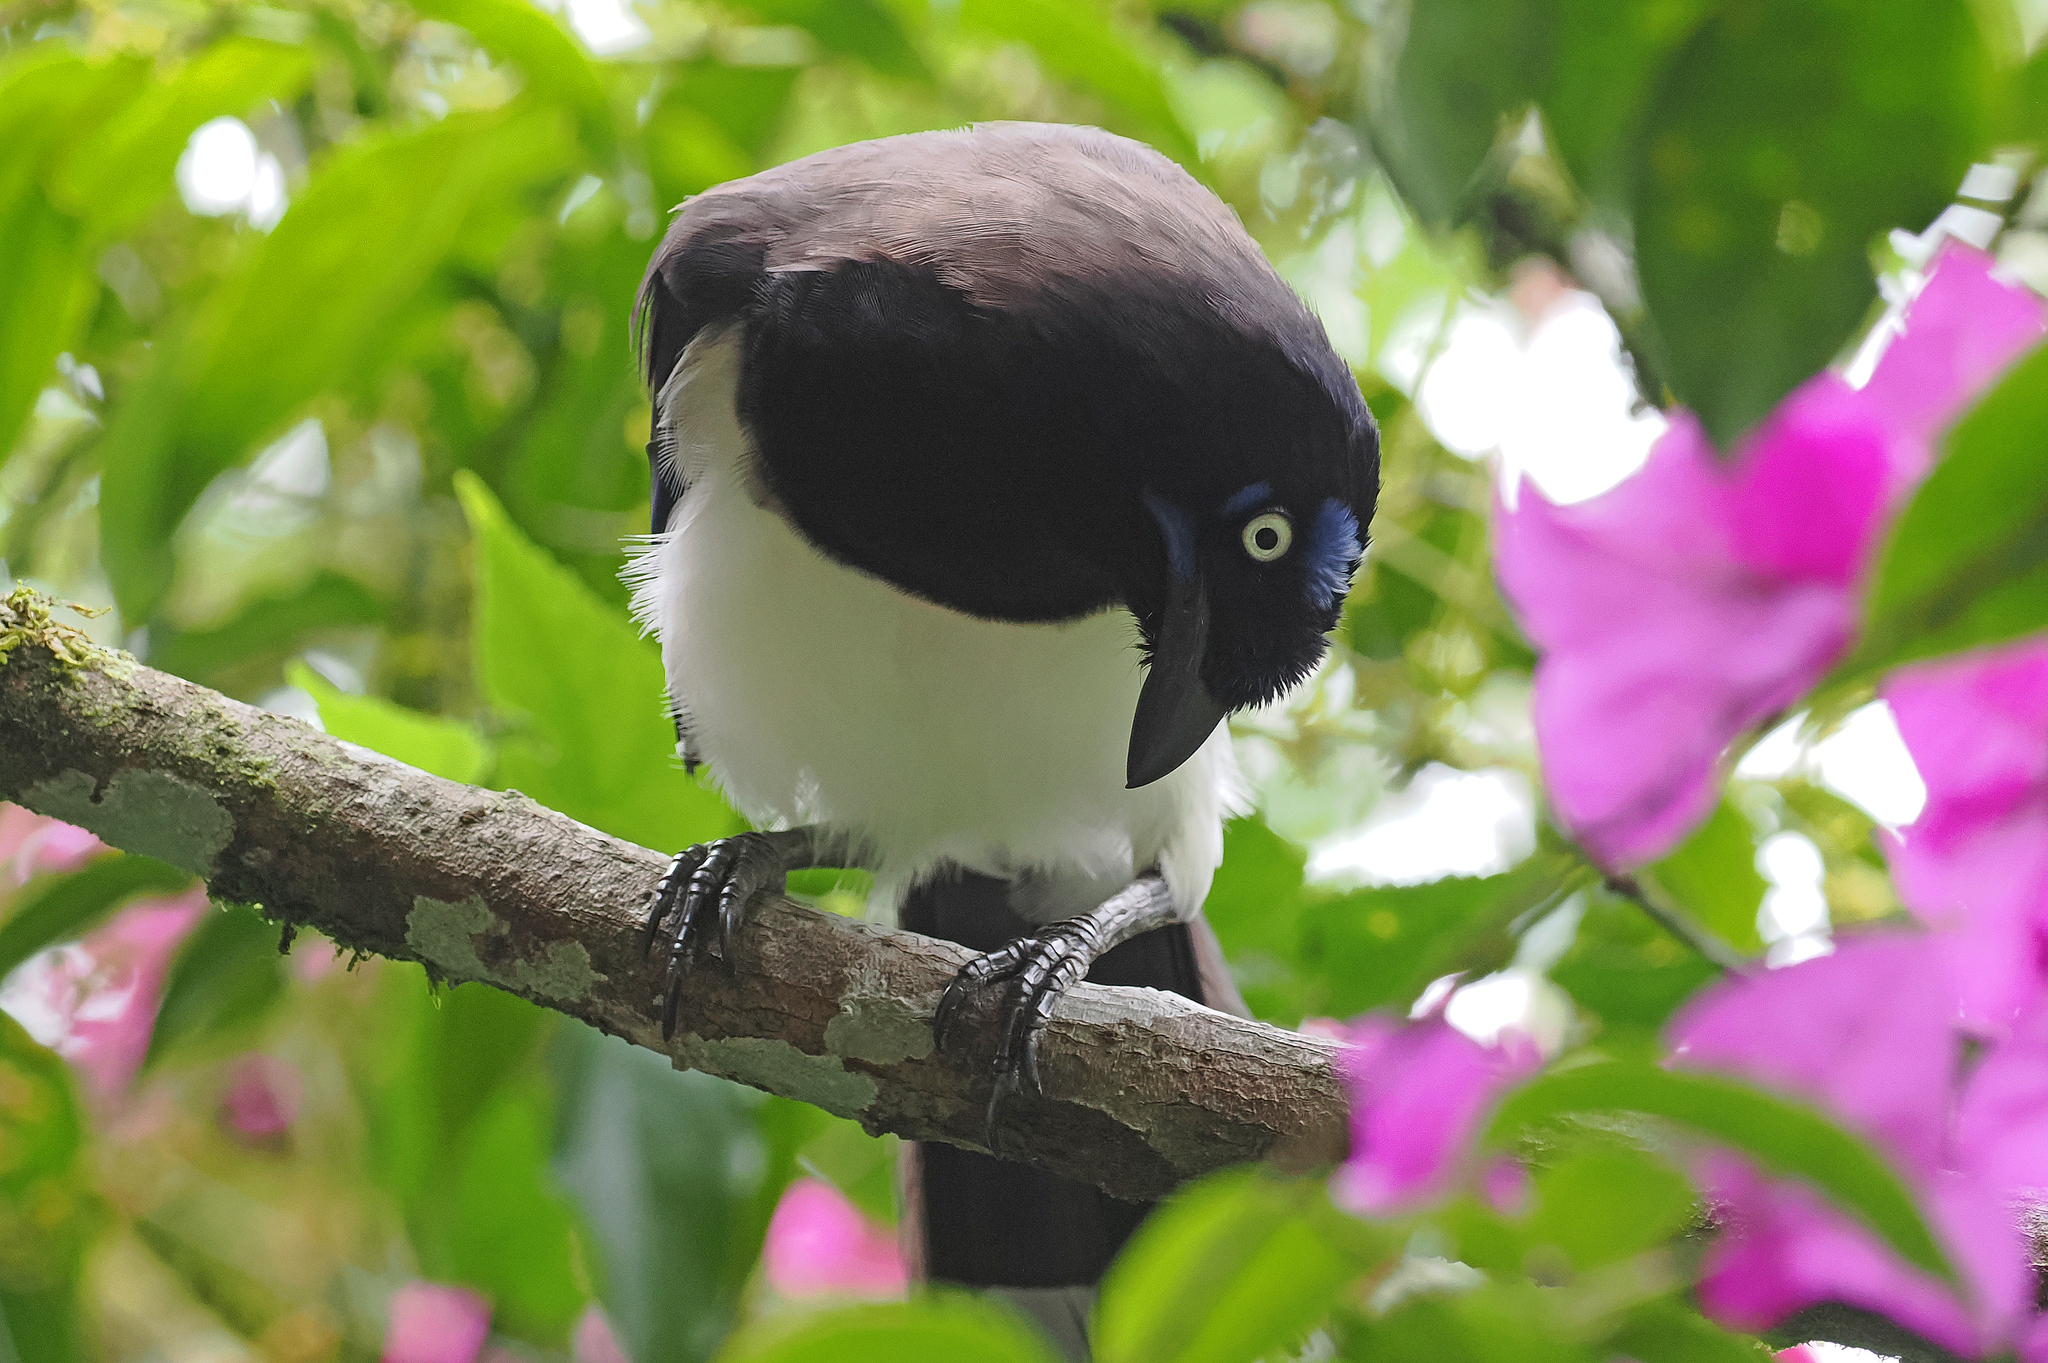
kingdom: Animalia
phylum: Chordata
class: Aves
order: Passeriformes
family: Corvidae
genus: Cyanocorax
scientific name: Cyanocorax affinis
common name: Black-chested jay
